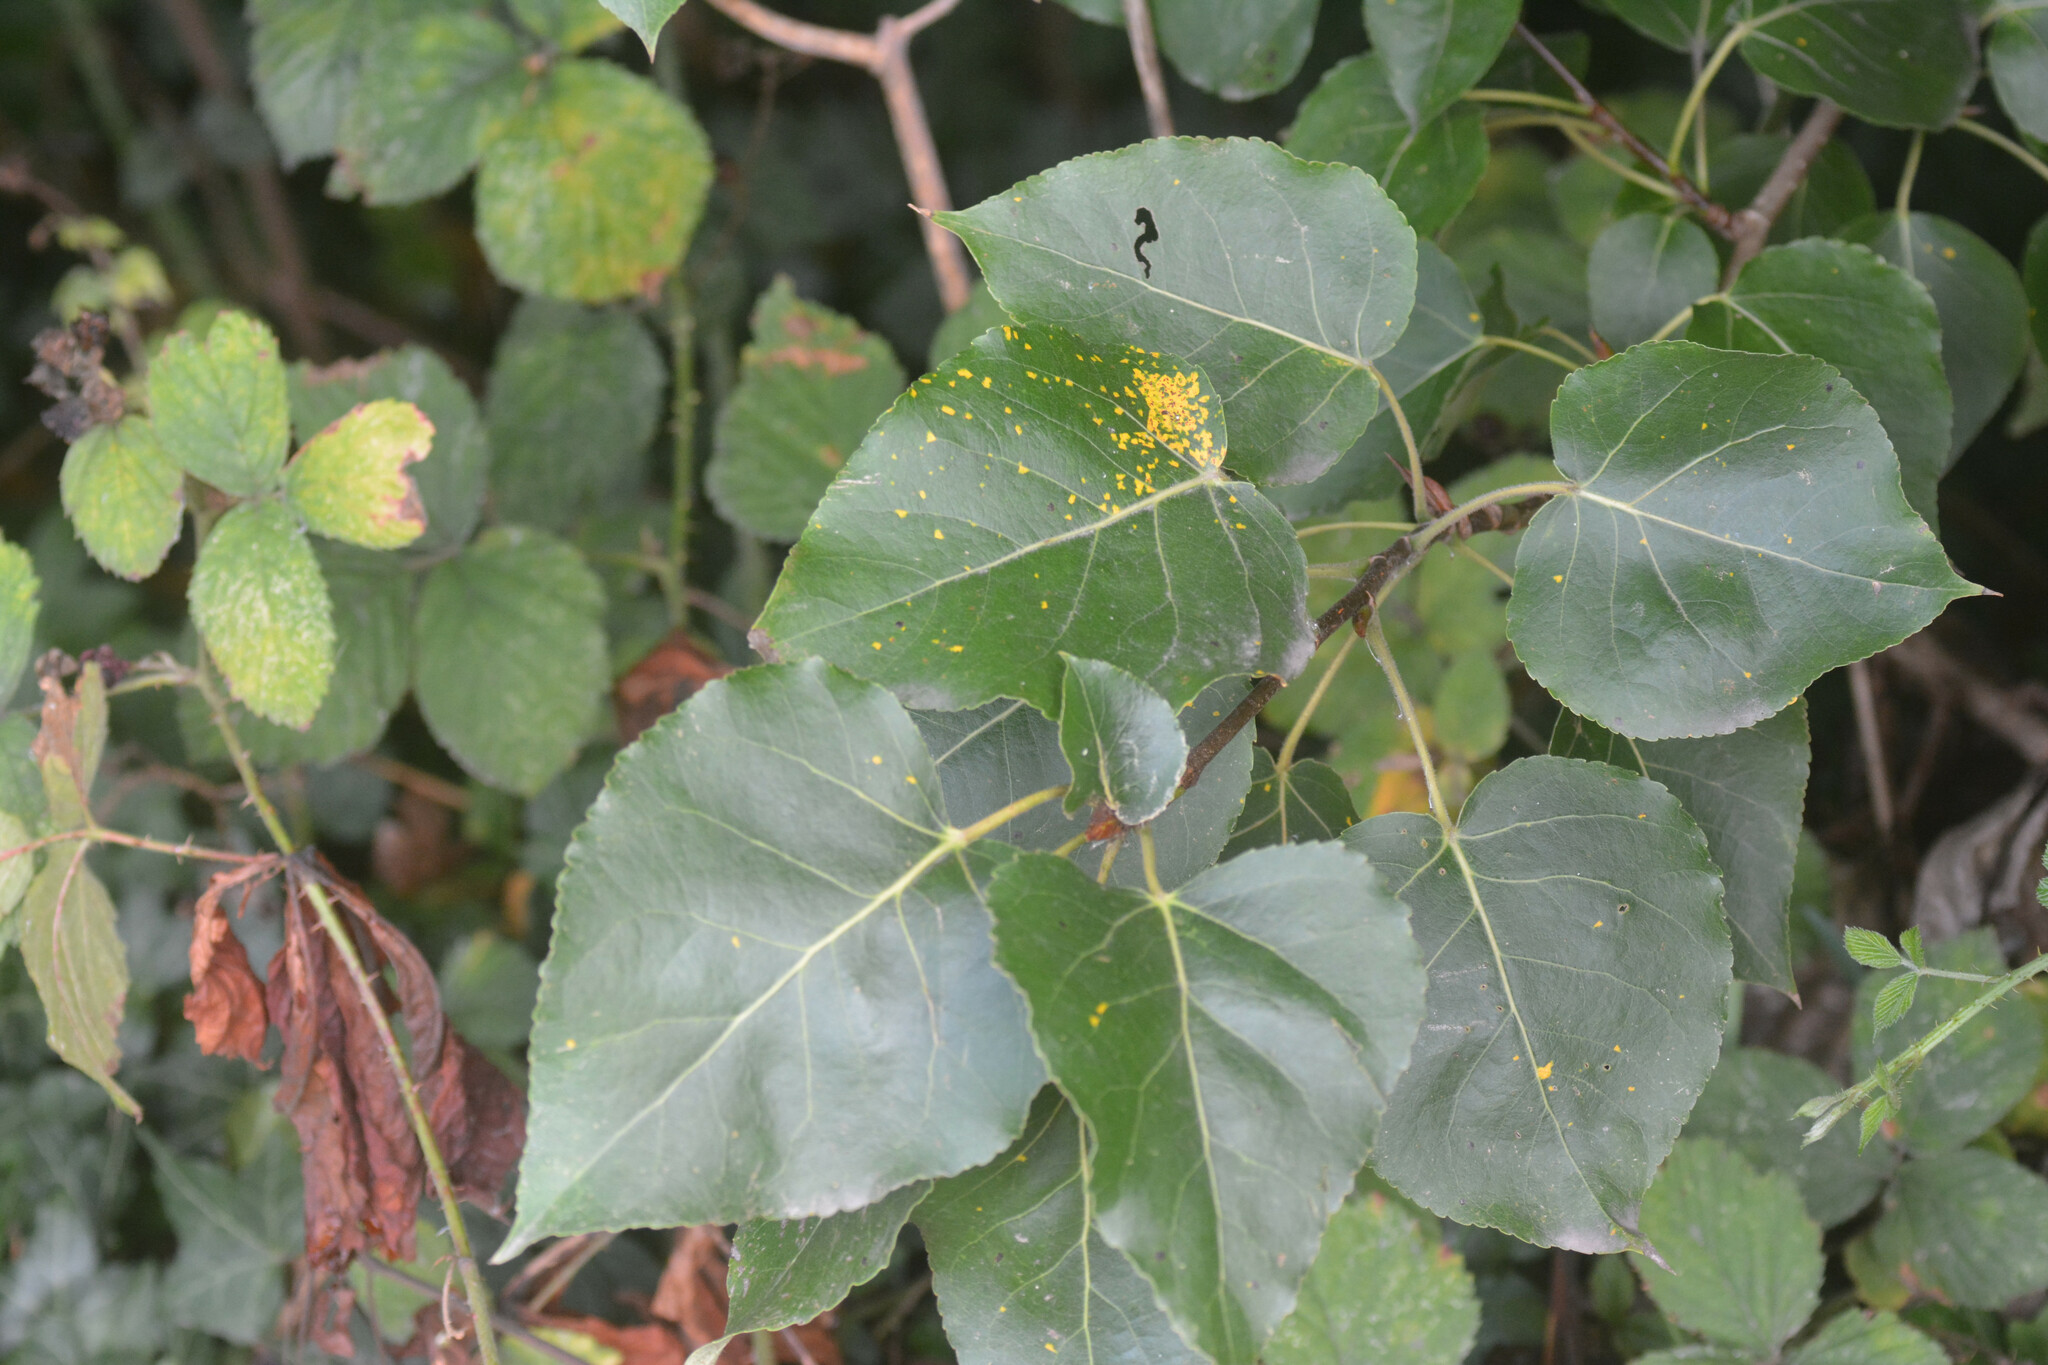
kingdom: Fungi
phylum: Basidiomycota
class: Pucciniomycetes
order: Pucciniales
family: Melampsoraceae
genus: Melampsora
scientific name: Melampsora
